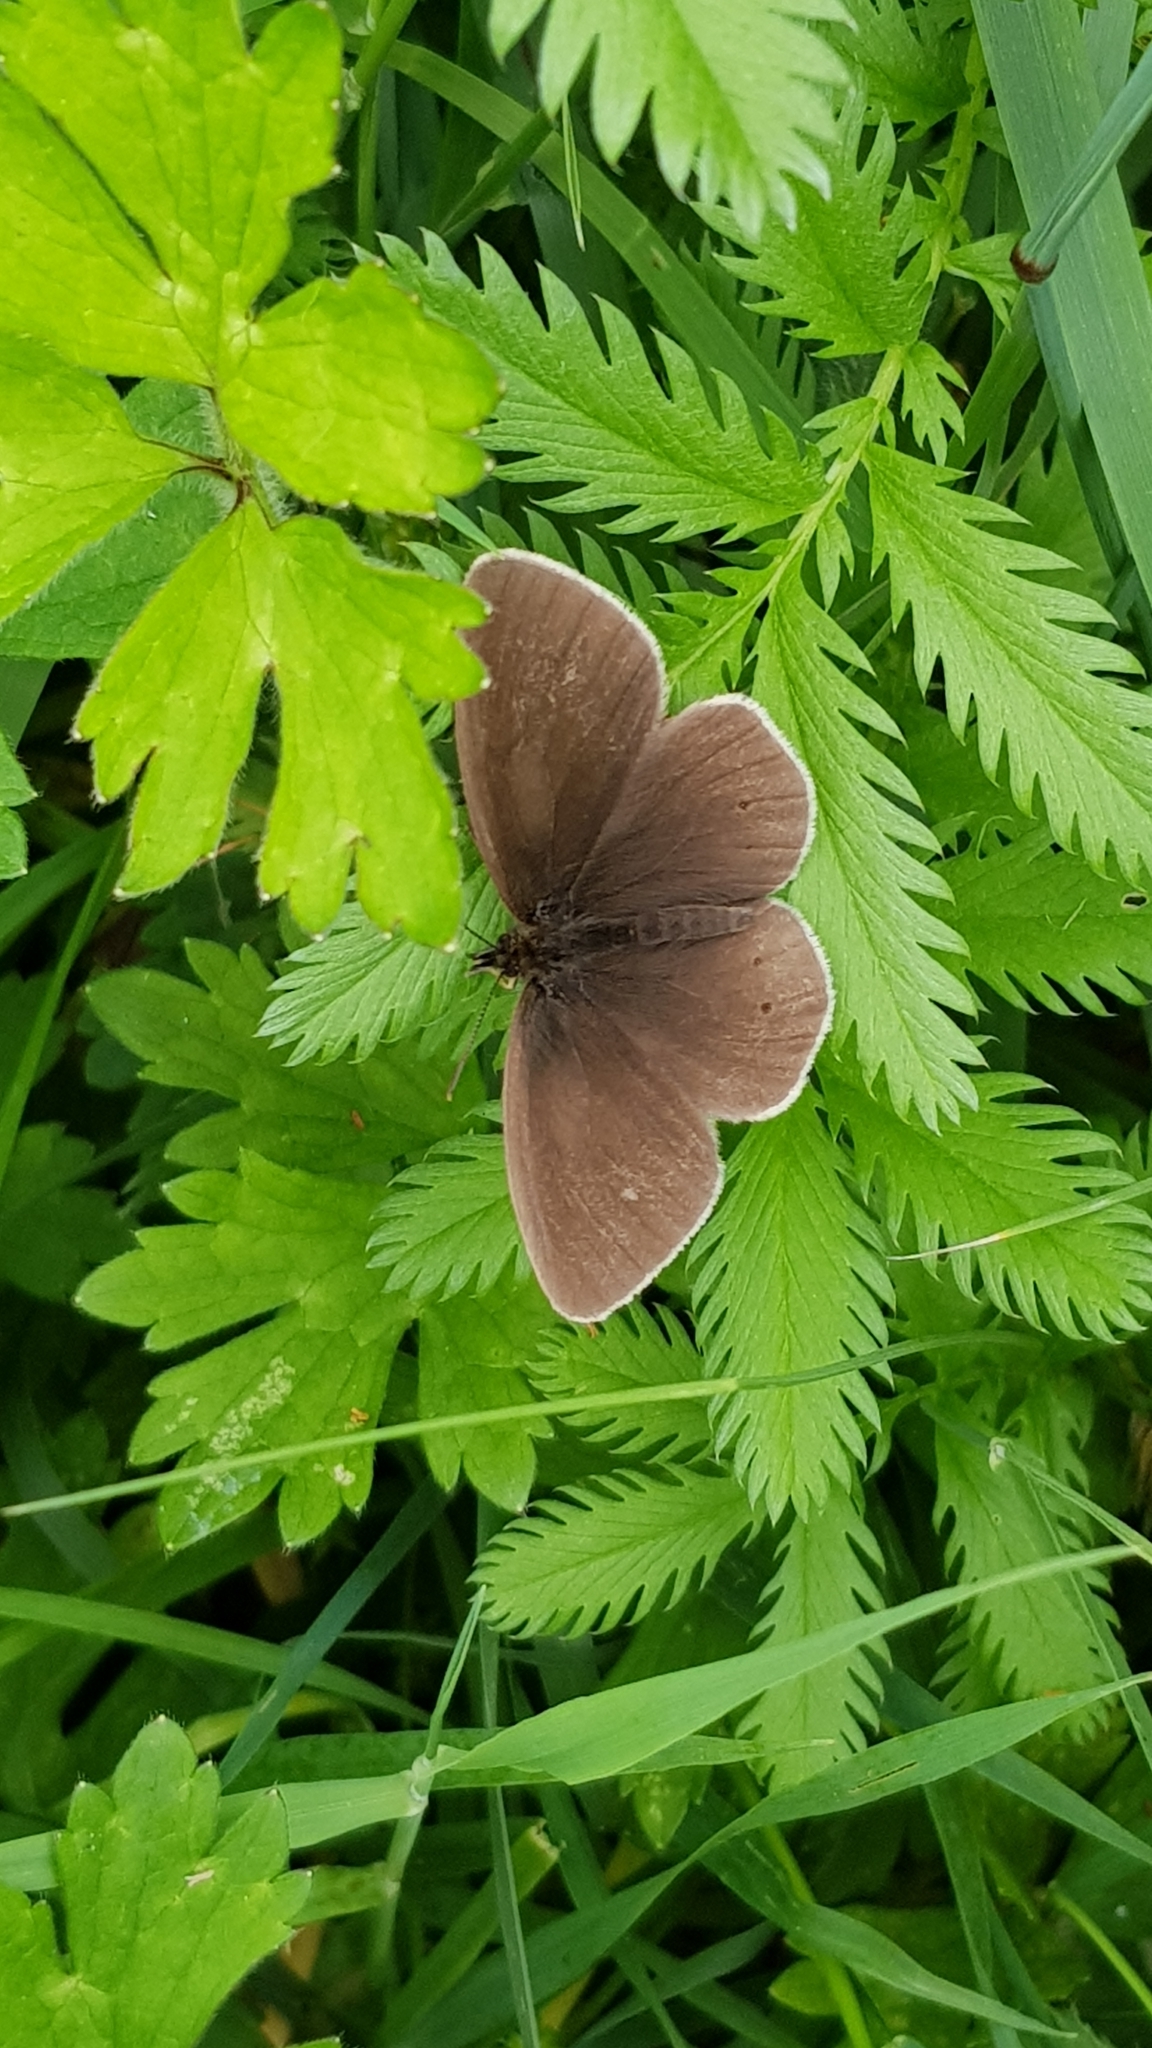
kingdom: Animalia
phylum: Arthropoda
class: Insecta
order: Lepidoptera
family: Nymphalidae
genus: Aphantopus
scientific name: Aphantopus hyperantus
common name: Ringlet
